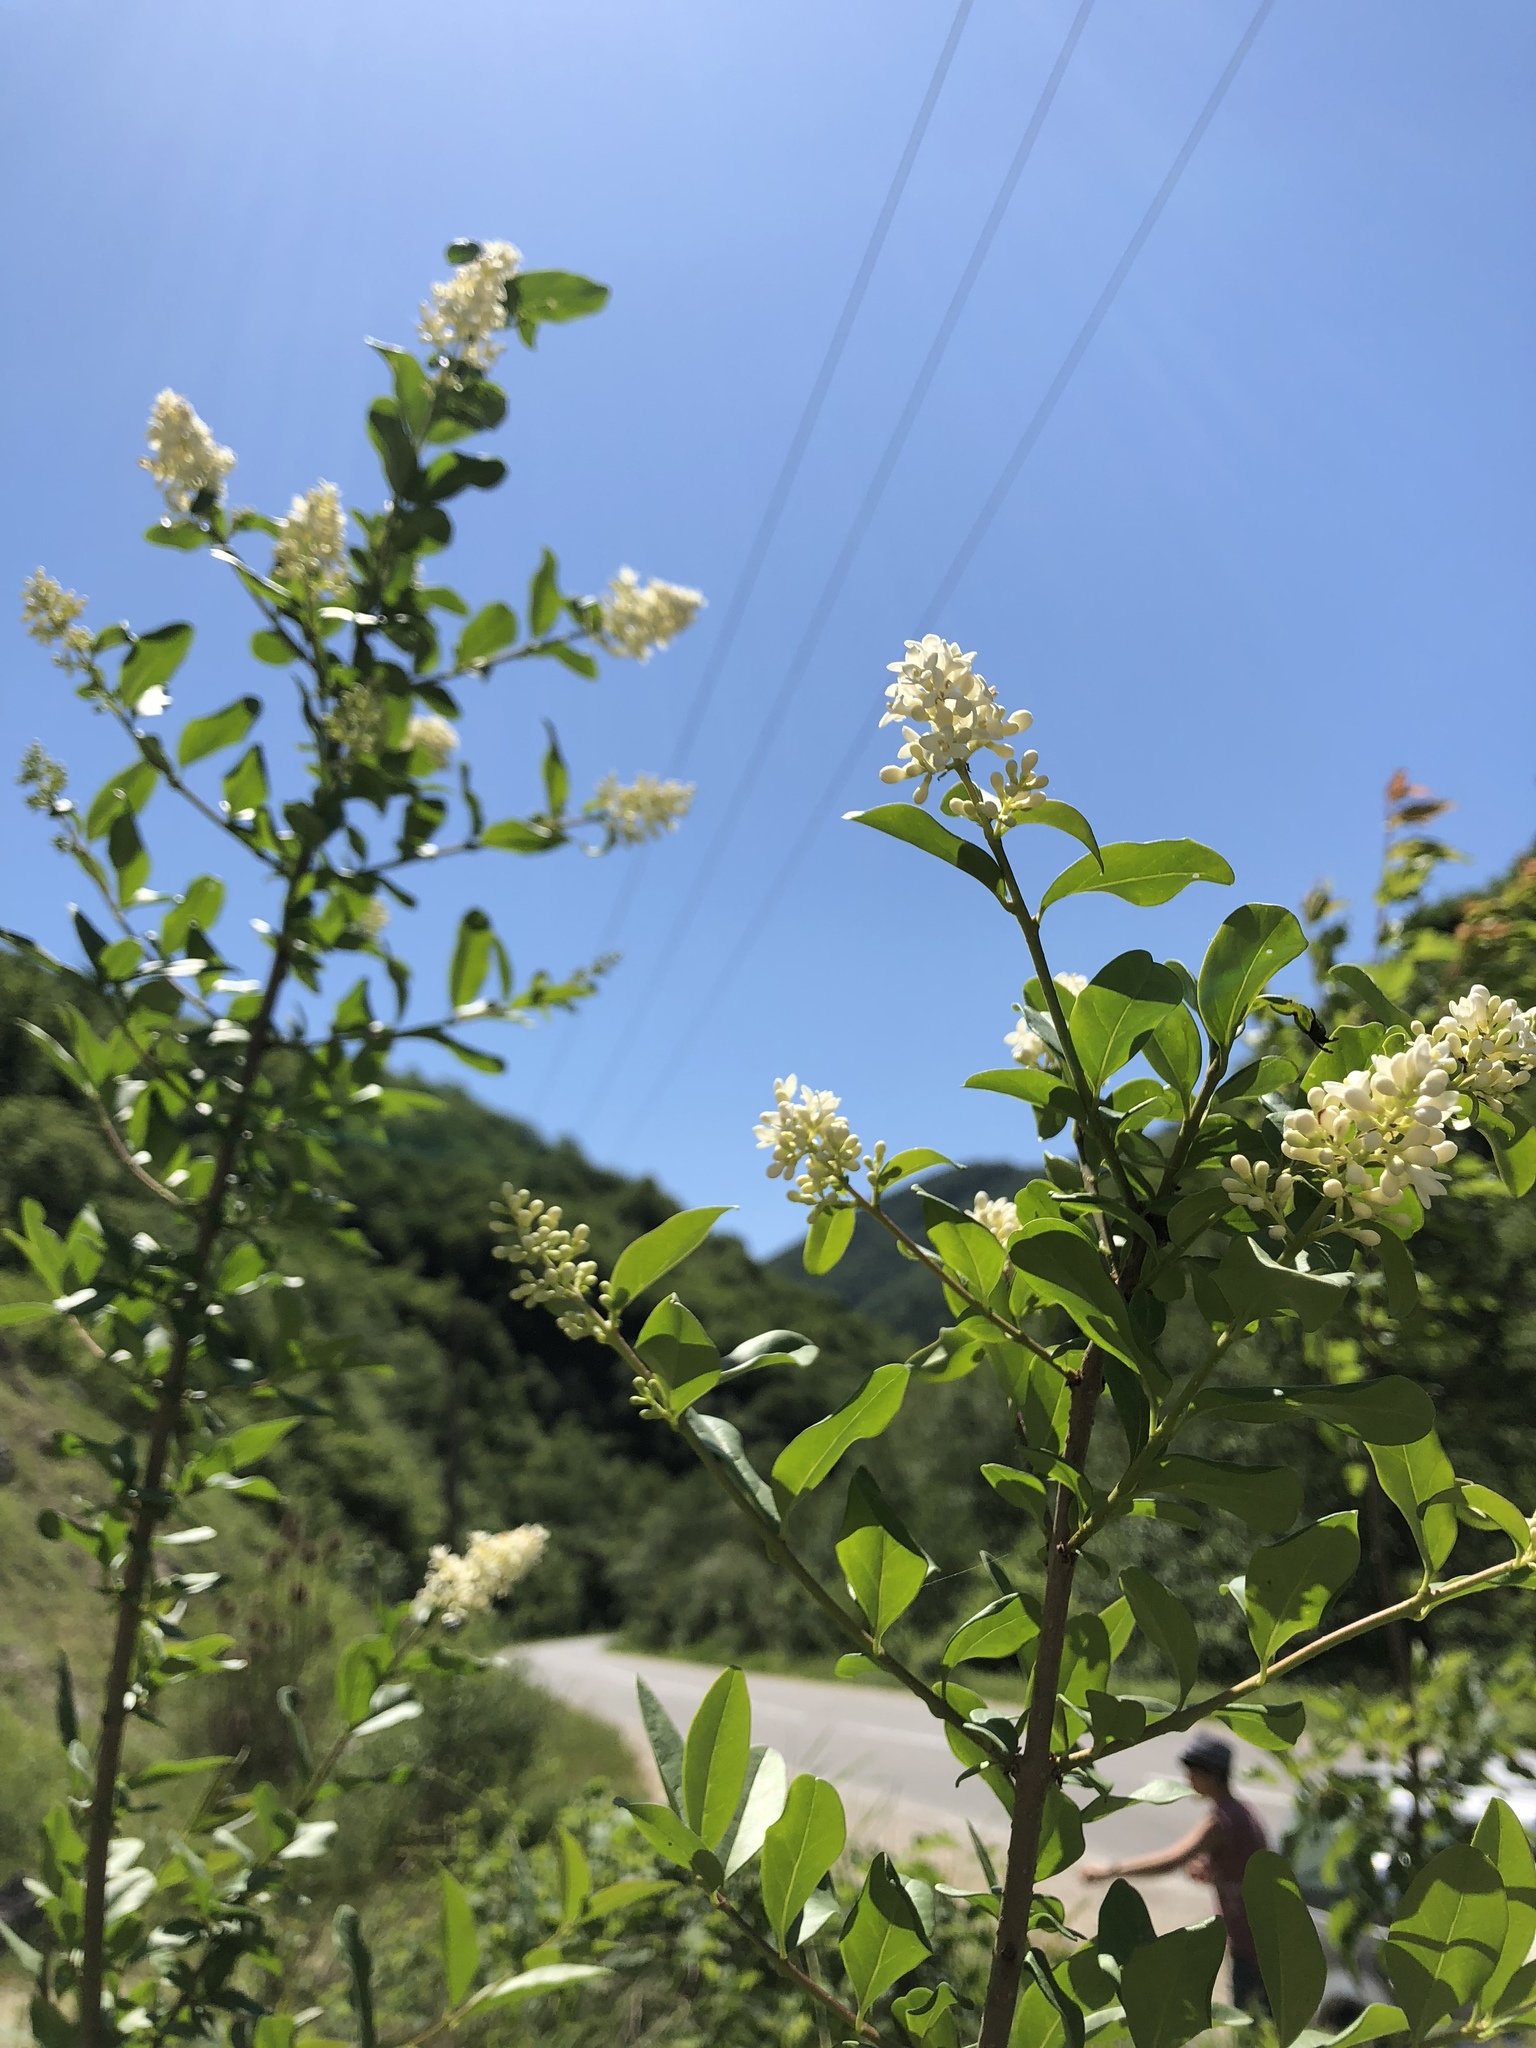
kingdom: Plantae
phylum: Tracheophyta
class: Magnoliopsida
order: Lamiales
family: Oleaceae
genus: Ligustrum
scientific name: Ligustrum vulgare
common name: Wild privet
